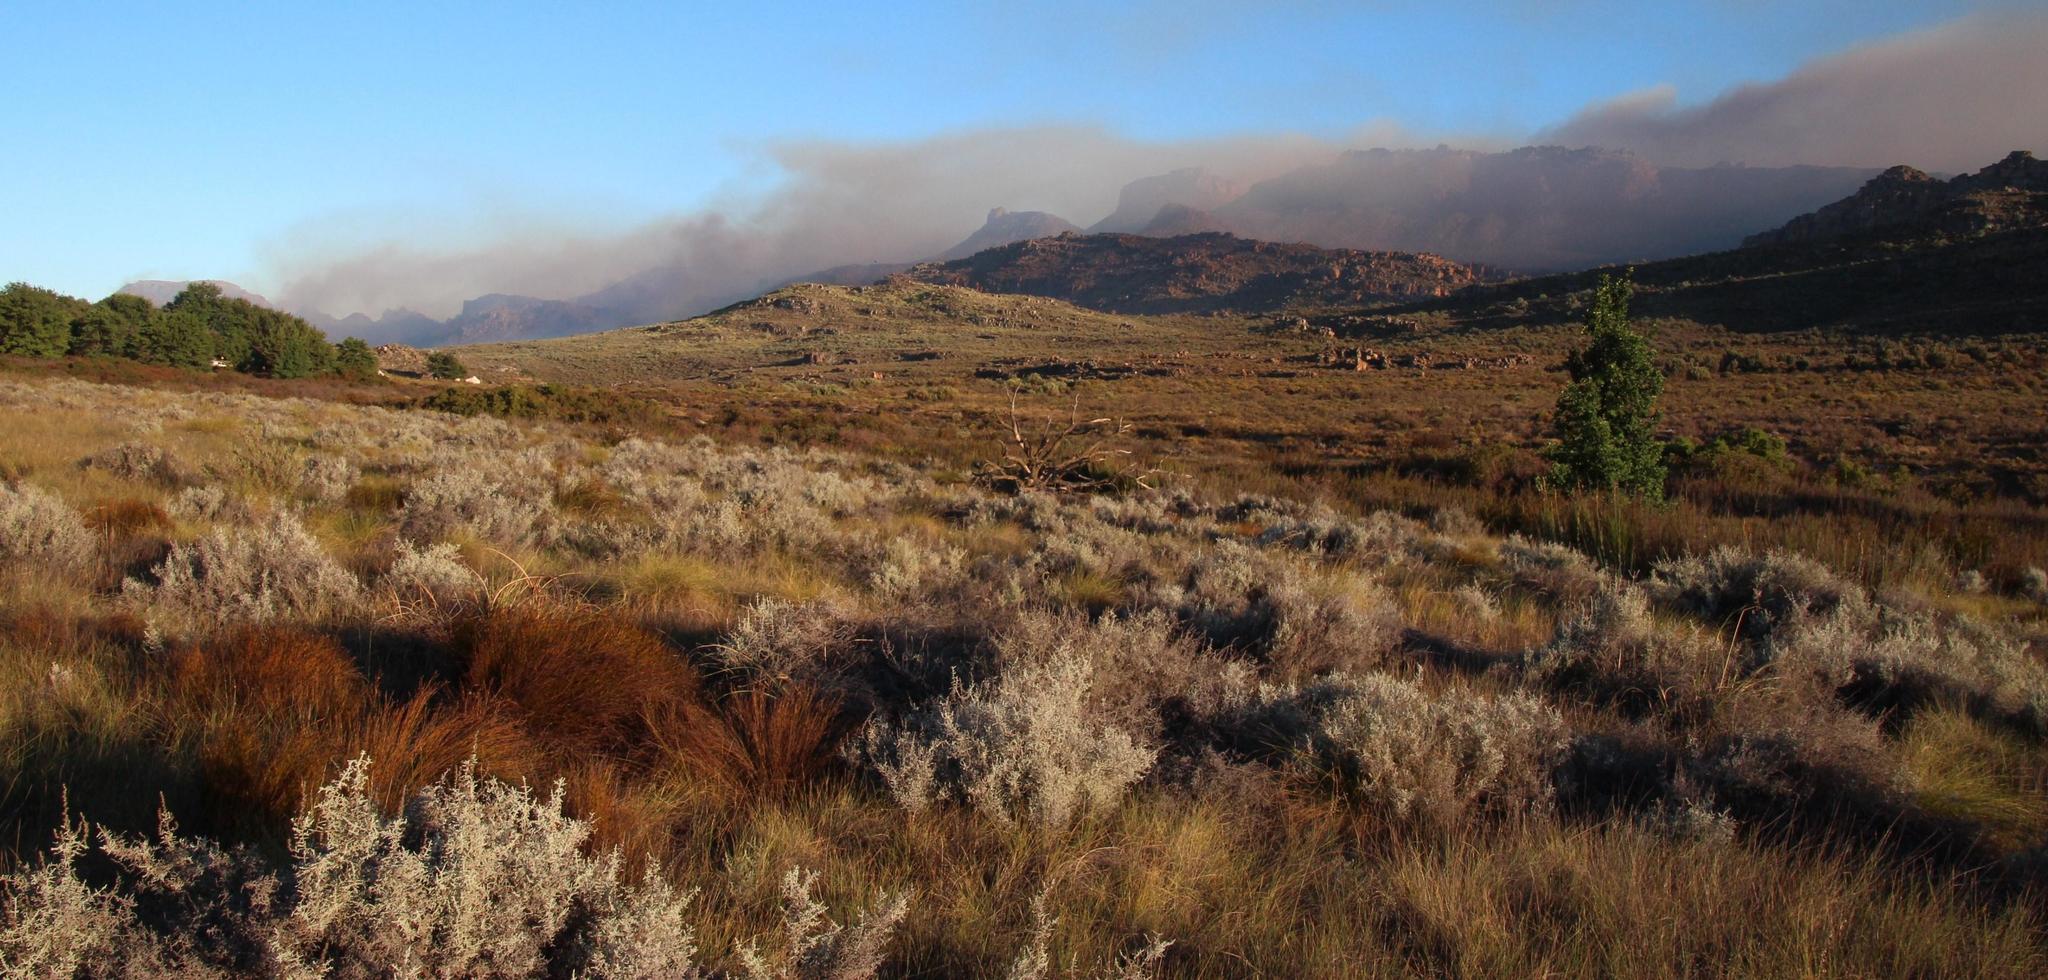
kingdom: Plantae
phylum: Tracheophyta
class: Magnoliopsida
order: Asterales
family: Asteraceae
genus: Seriphium
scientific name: Seriphium plumosum
